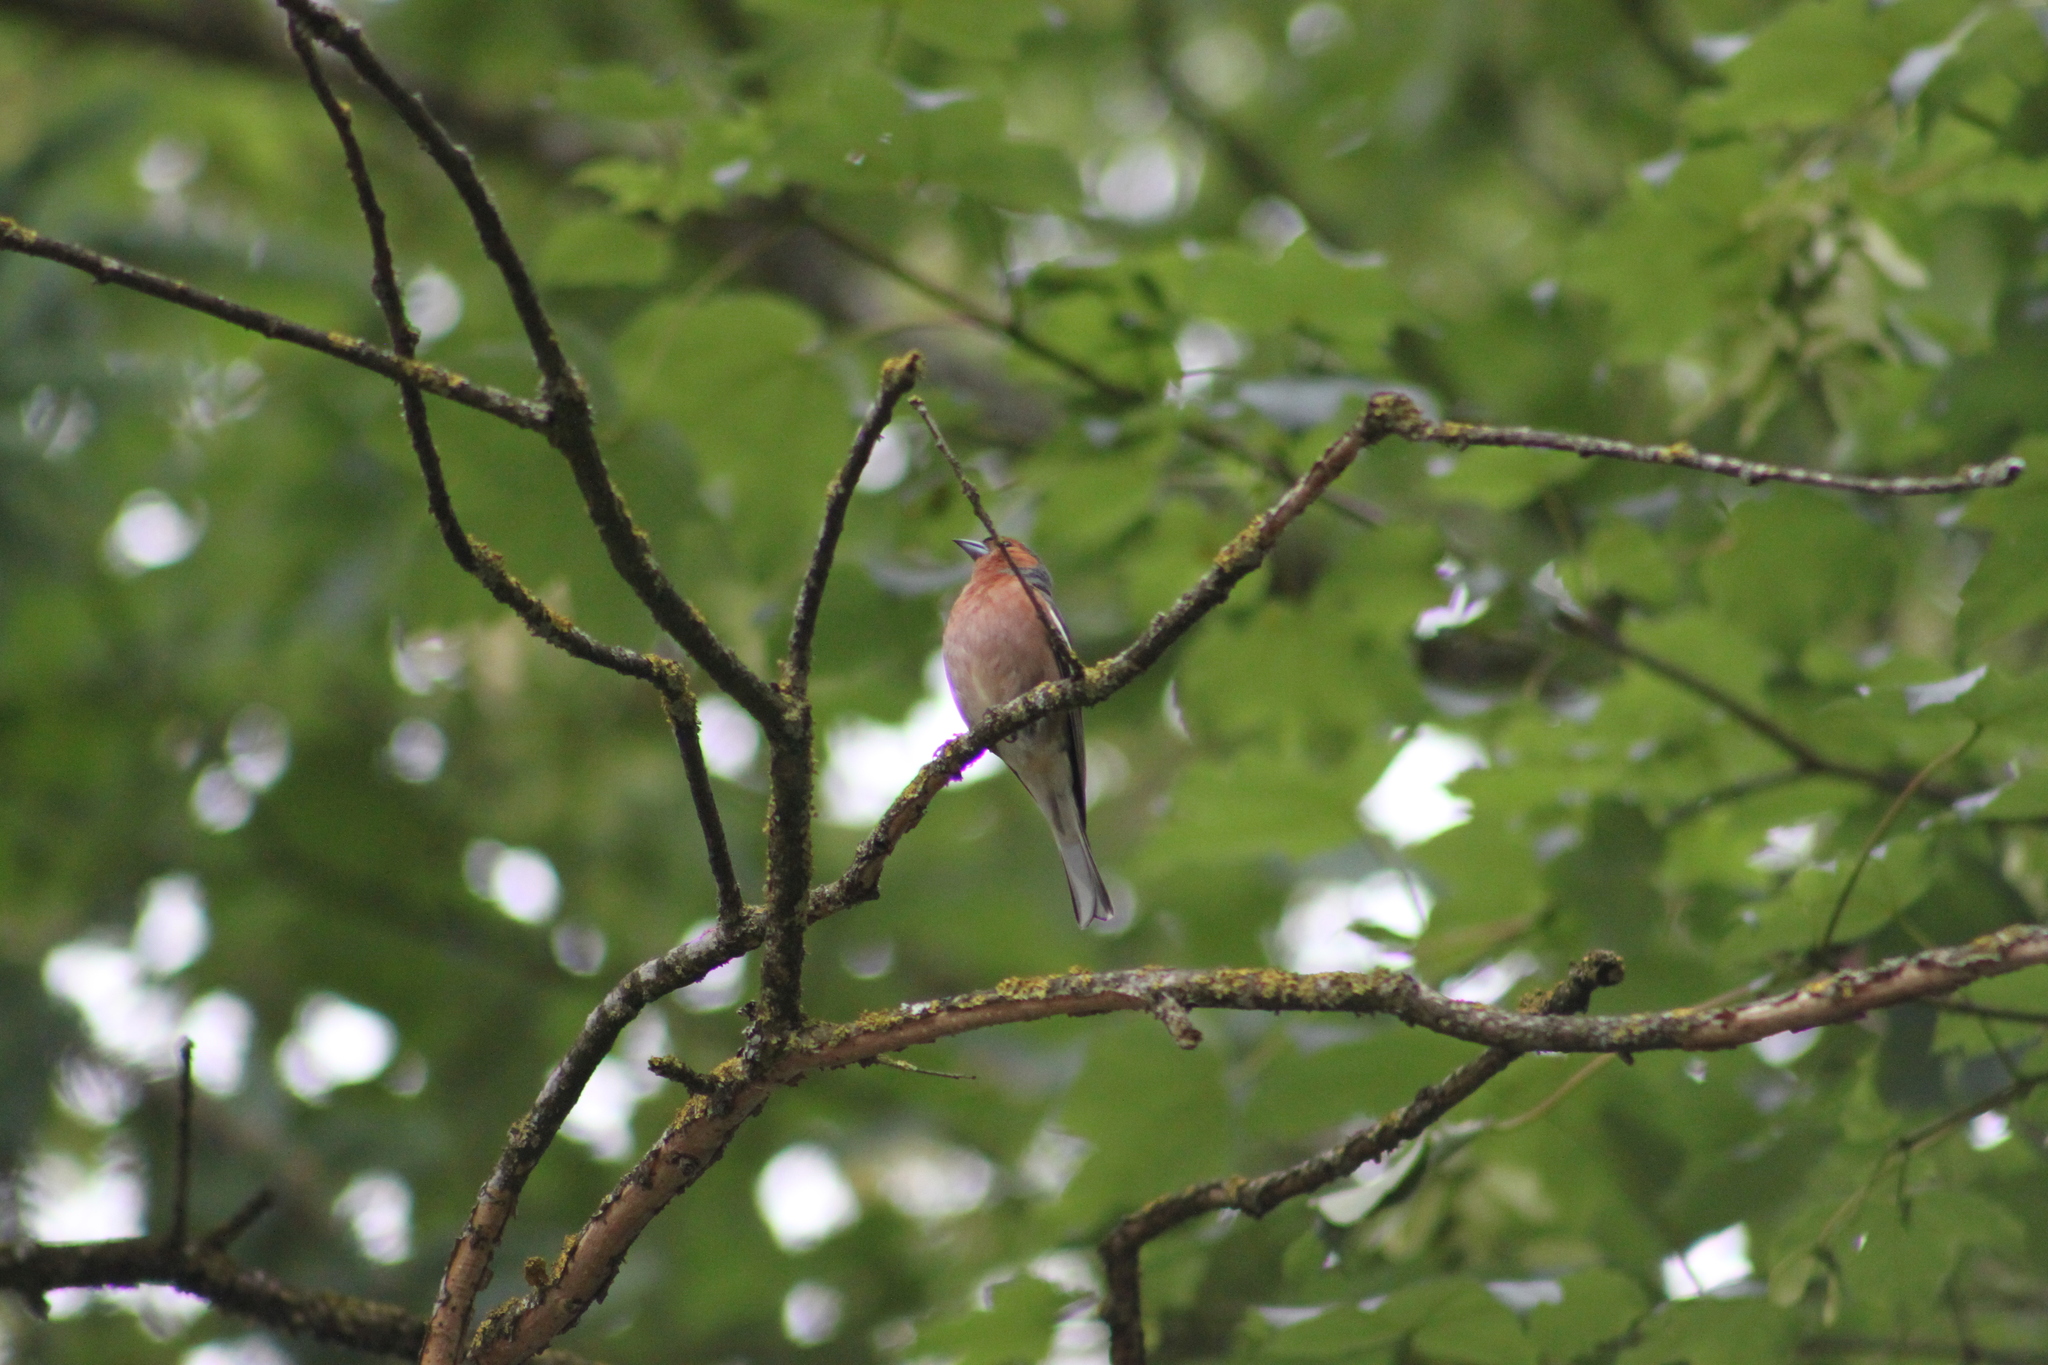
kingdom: Animalia
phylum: Chordata
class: Aves
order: Passeriformes
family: Fringillidae
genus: Fringilla
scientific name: Fringilla coelebs
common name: Common chaffinch
